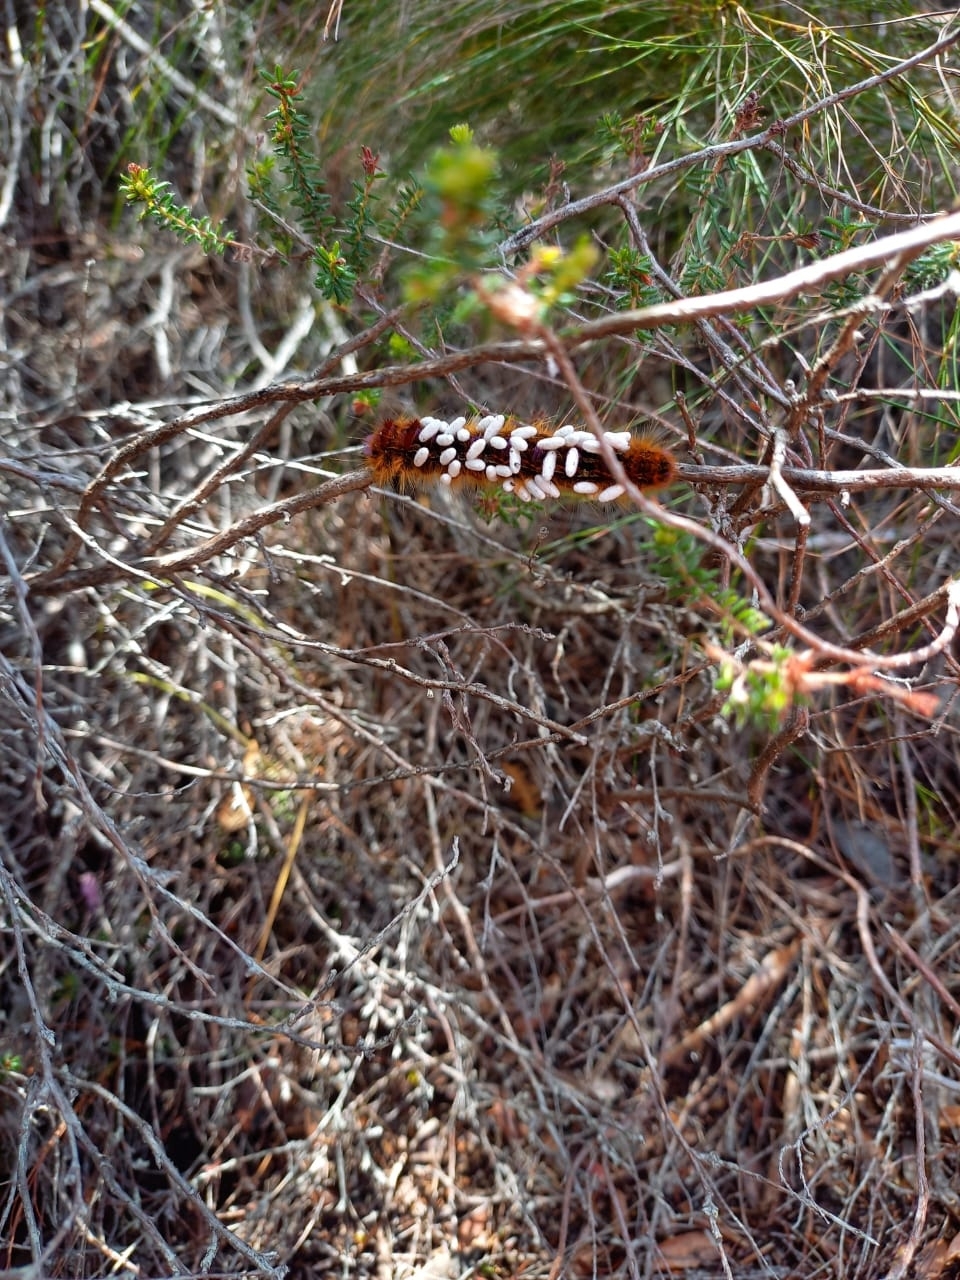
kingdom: Animalia
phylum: Arthropoda
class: Insecta
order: Lepidoptera
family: Lasiocampidae
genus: Eutricha
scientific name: Eutricha bifascia
